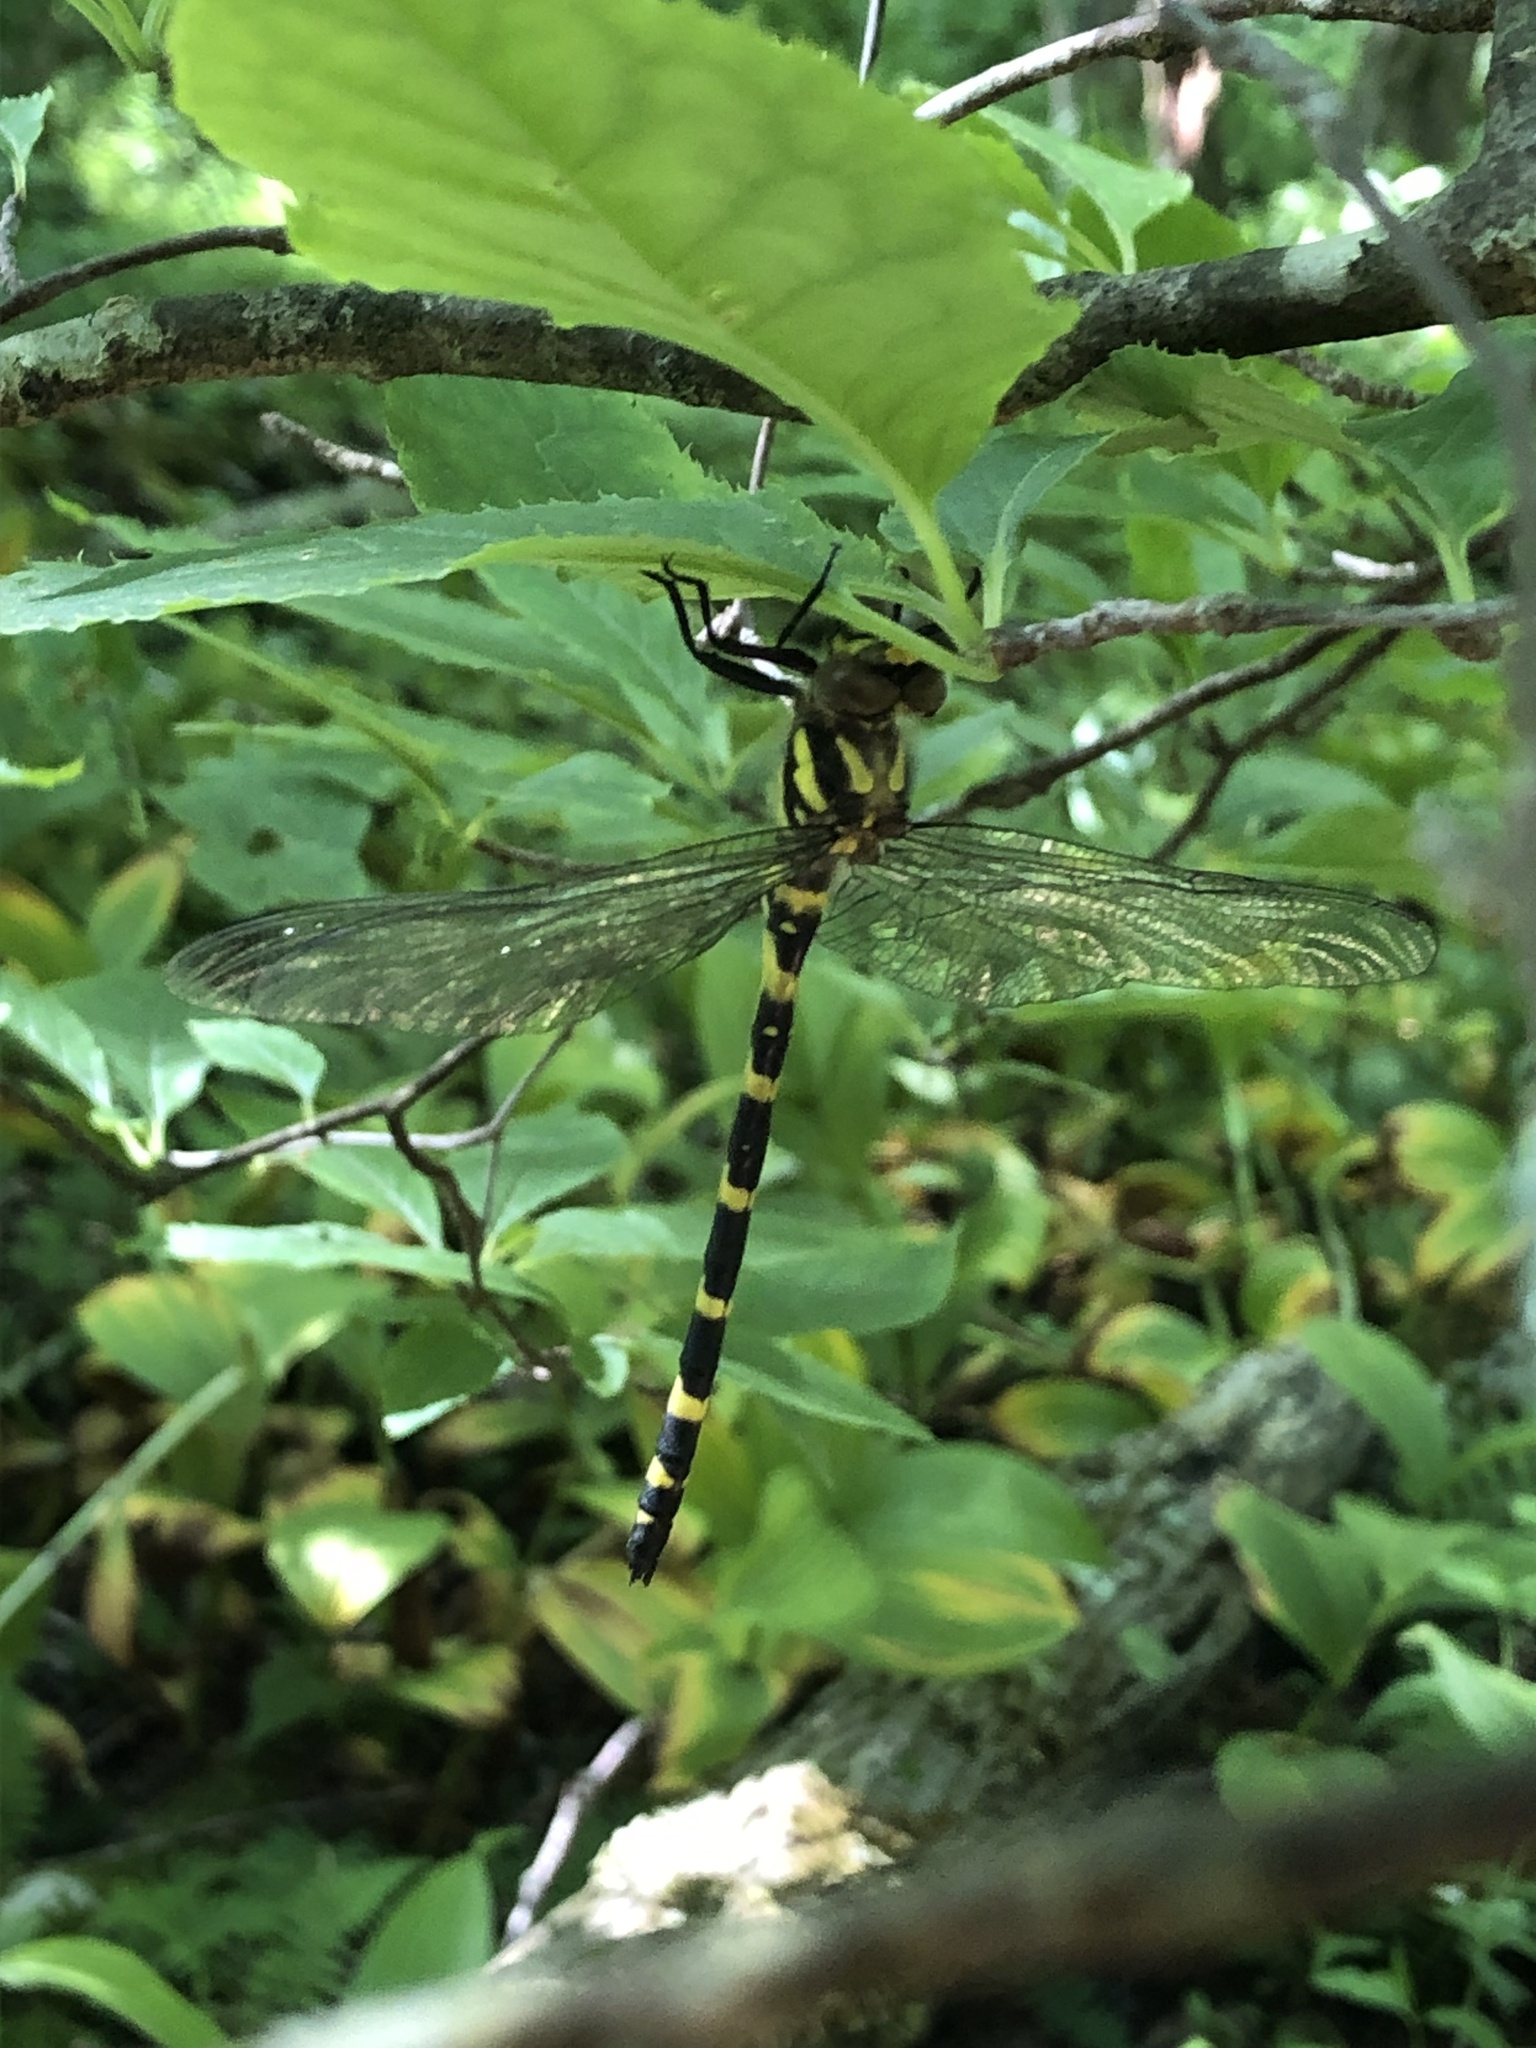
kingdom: Animalia
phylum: Arthropoda
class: Insecta
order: Odonata
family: Cordulegastridae
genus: Cordulegaster
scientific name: Cordulegaster erronea
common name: Tiger spiketail
